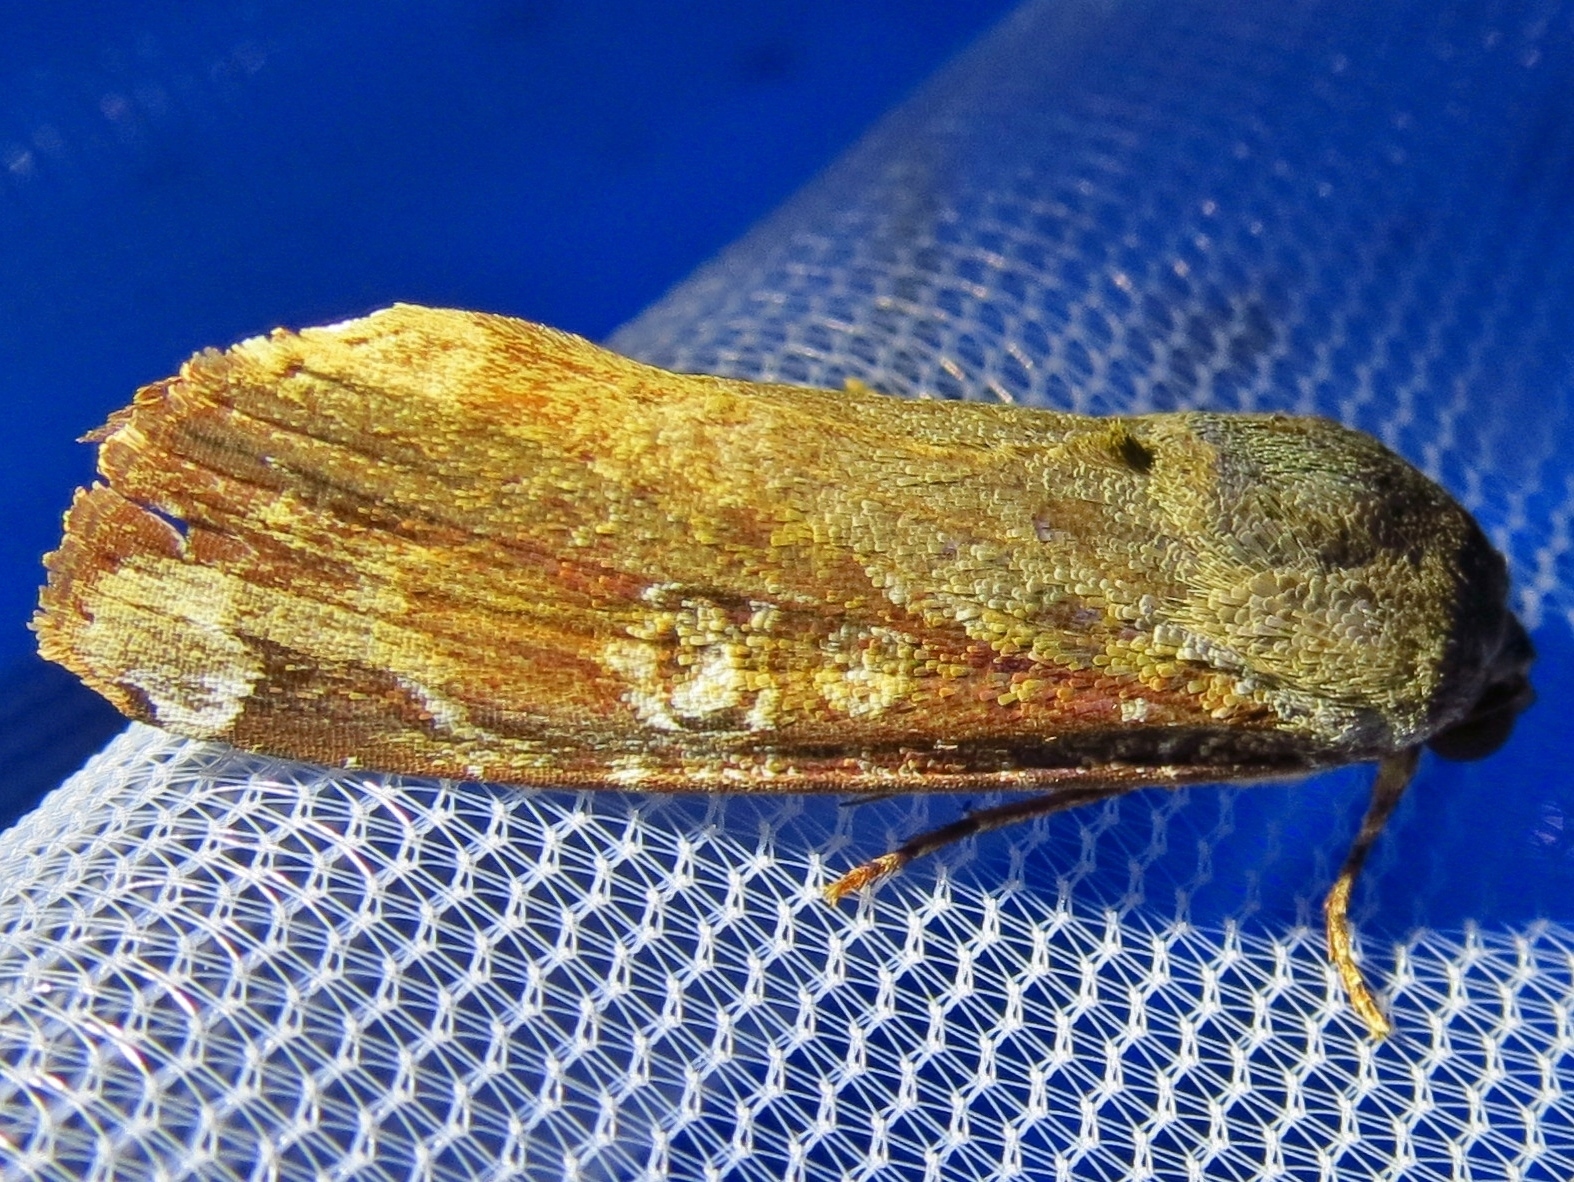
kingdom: Animalia
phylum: Arthropoda
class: Insecta
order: Lepidoptera
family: Noctuidae
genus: Magusa
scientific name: Magusa divaricata
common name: Orb narrow-winged moth
